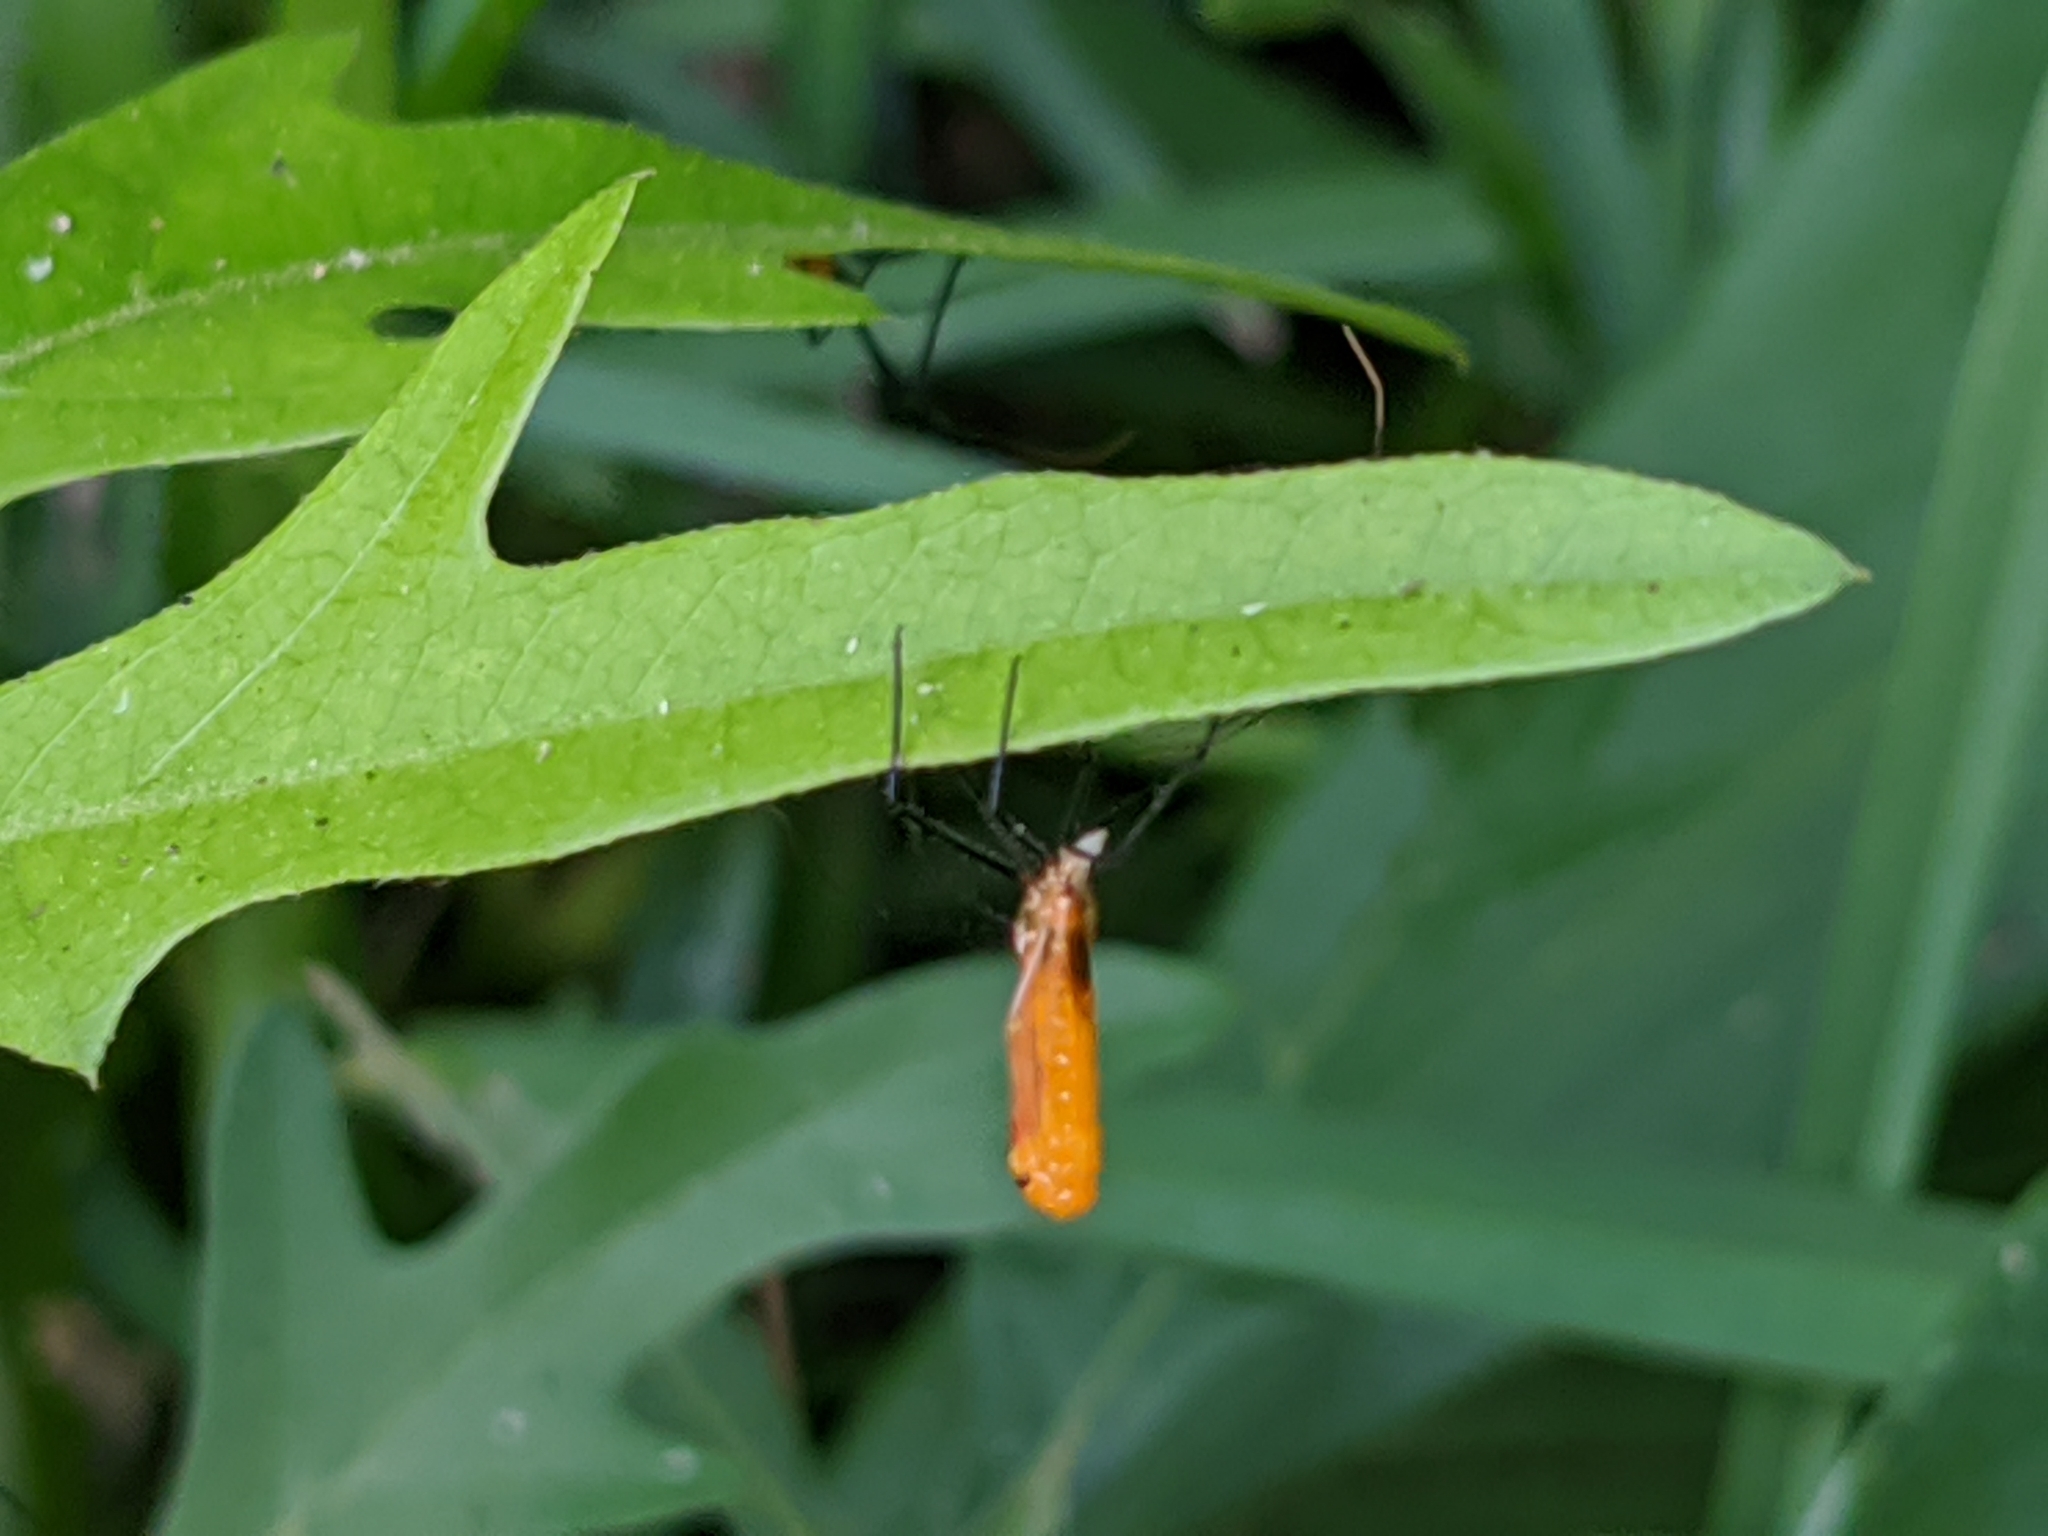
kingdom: Animalia
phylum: Arthropoda
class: Insecta
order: Hemiptera
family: Reduviidae
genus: Zelus
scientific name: Zelus longipes
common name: Milkweed assassin bug
